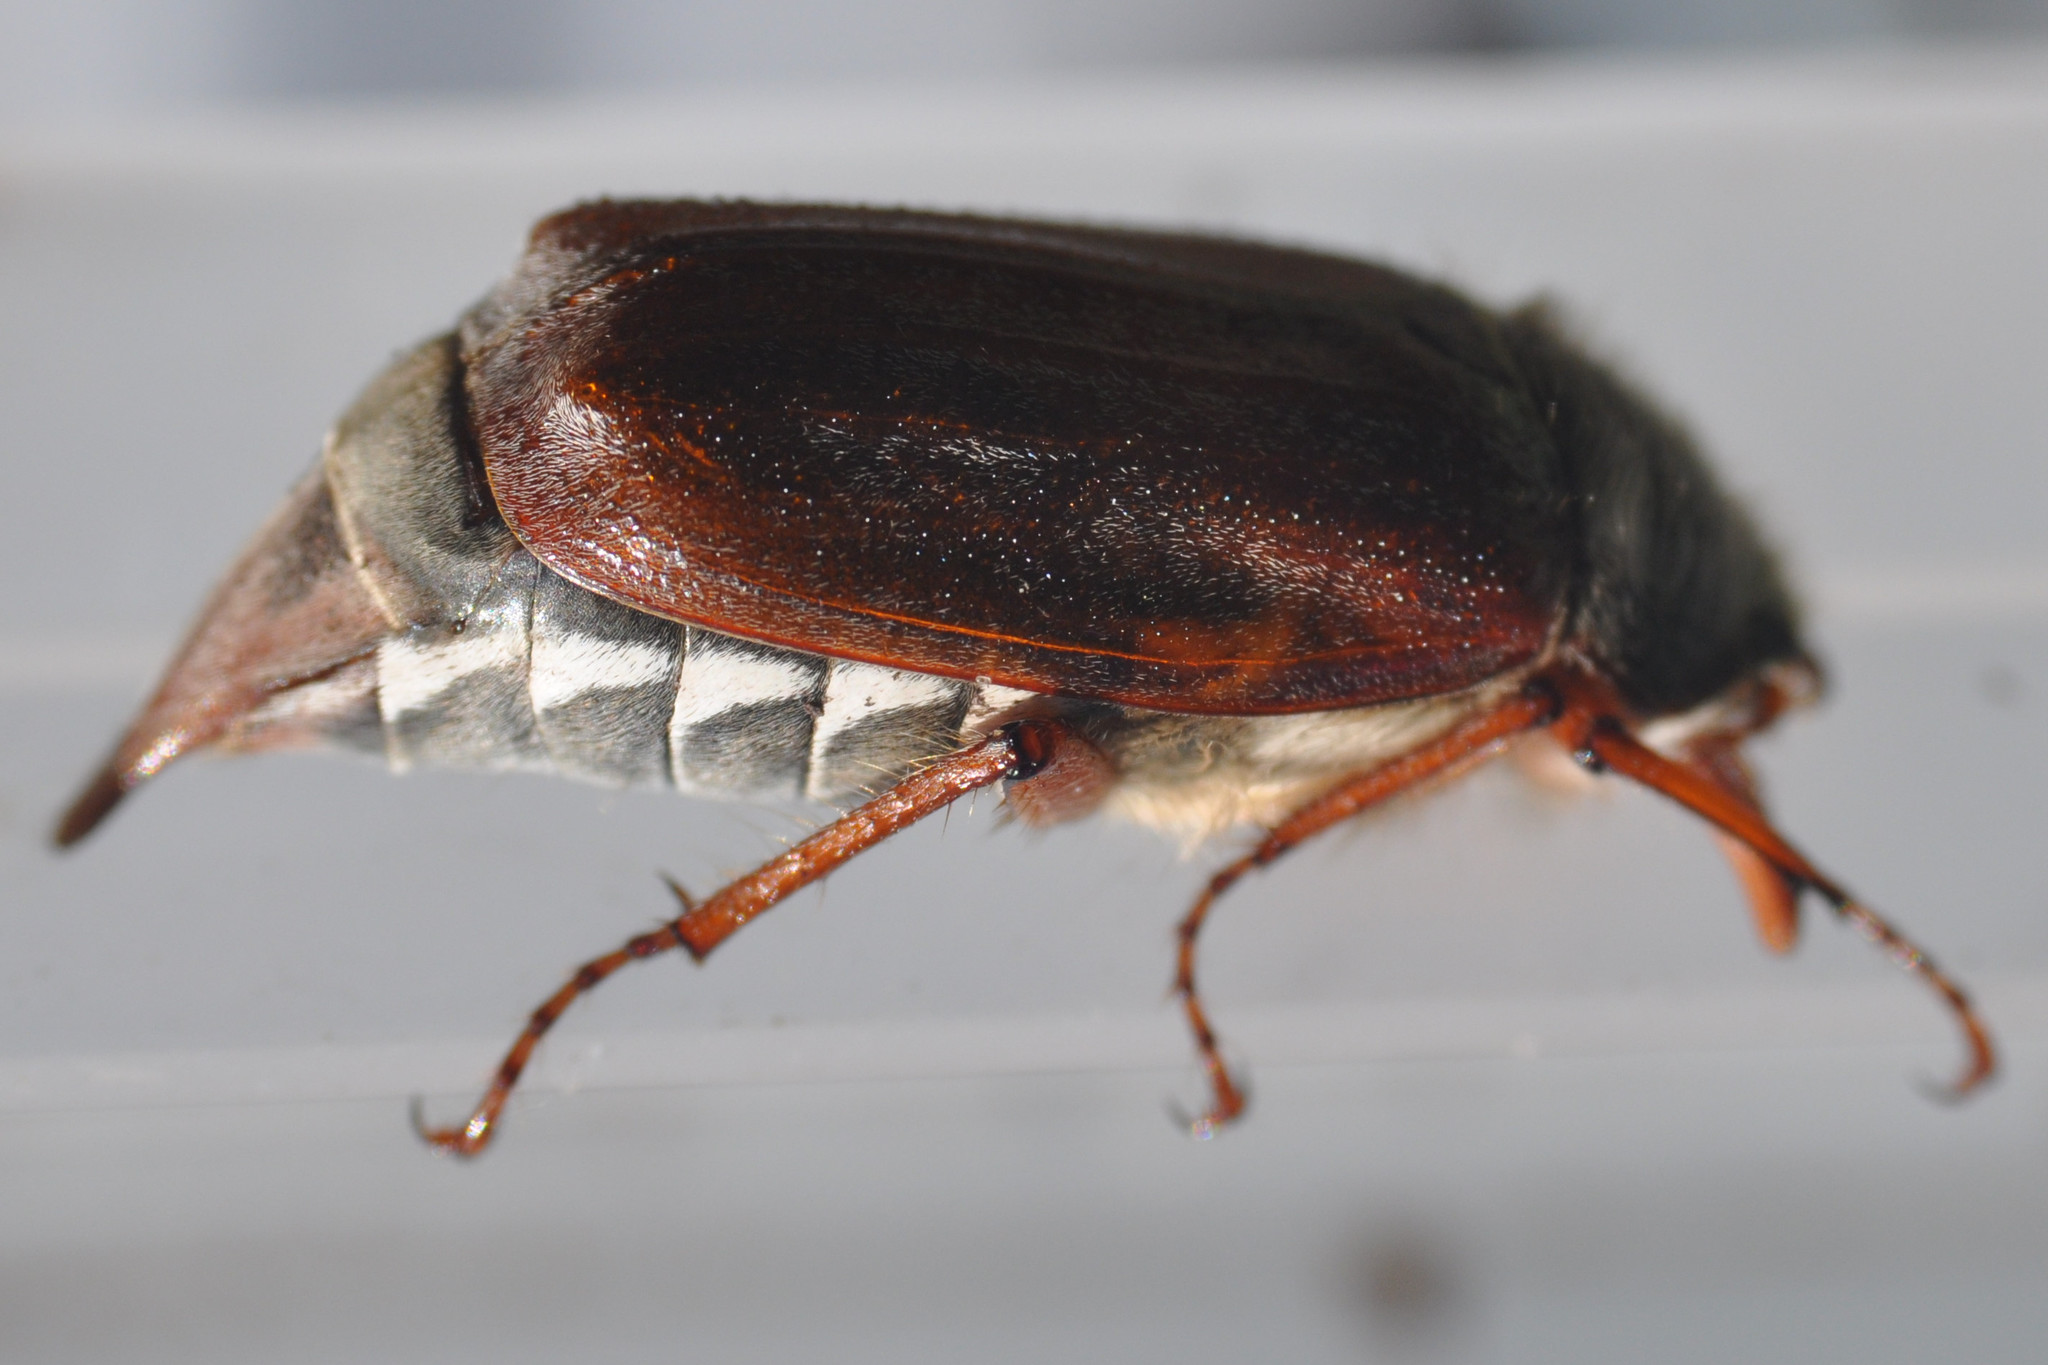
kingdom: Animalia
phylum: Arthropoda
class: Insecta
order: Coleoptera
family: Scarabaeidae
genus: Melolontha
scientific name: Melolontha melolontha
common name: Cockchafer maybeetle
